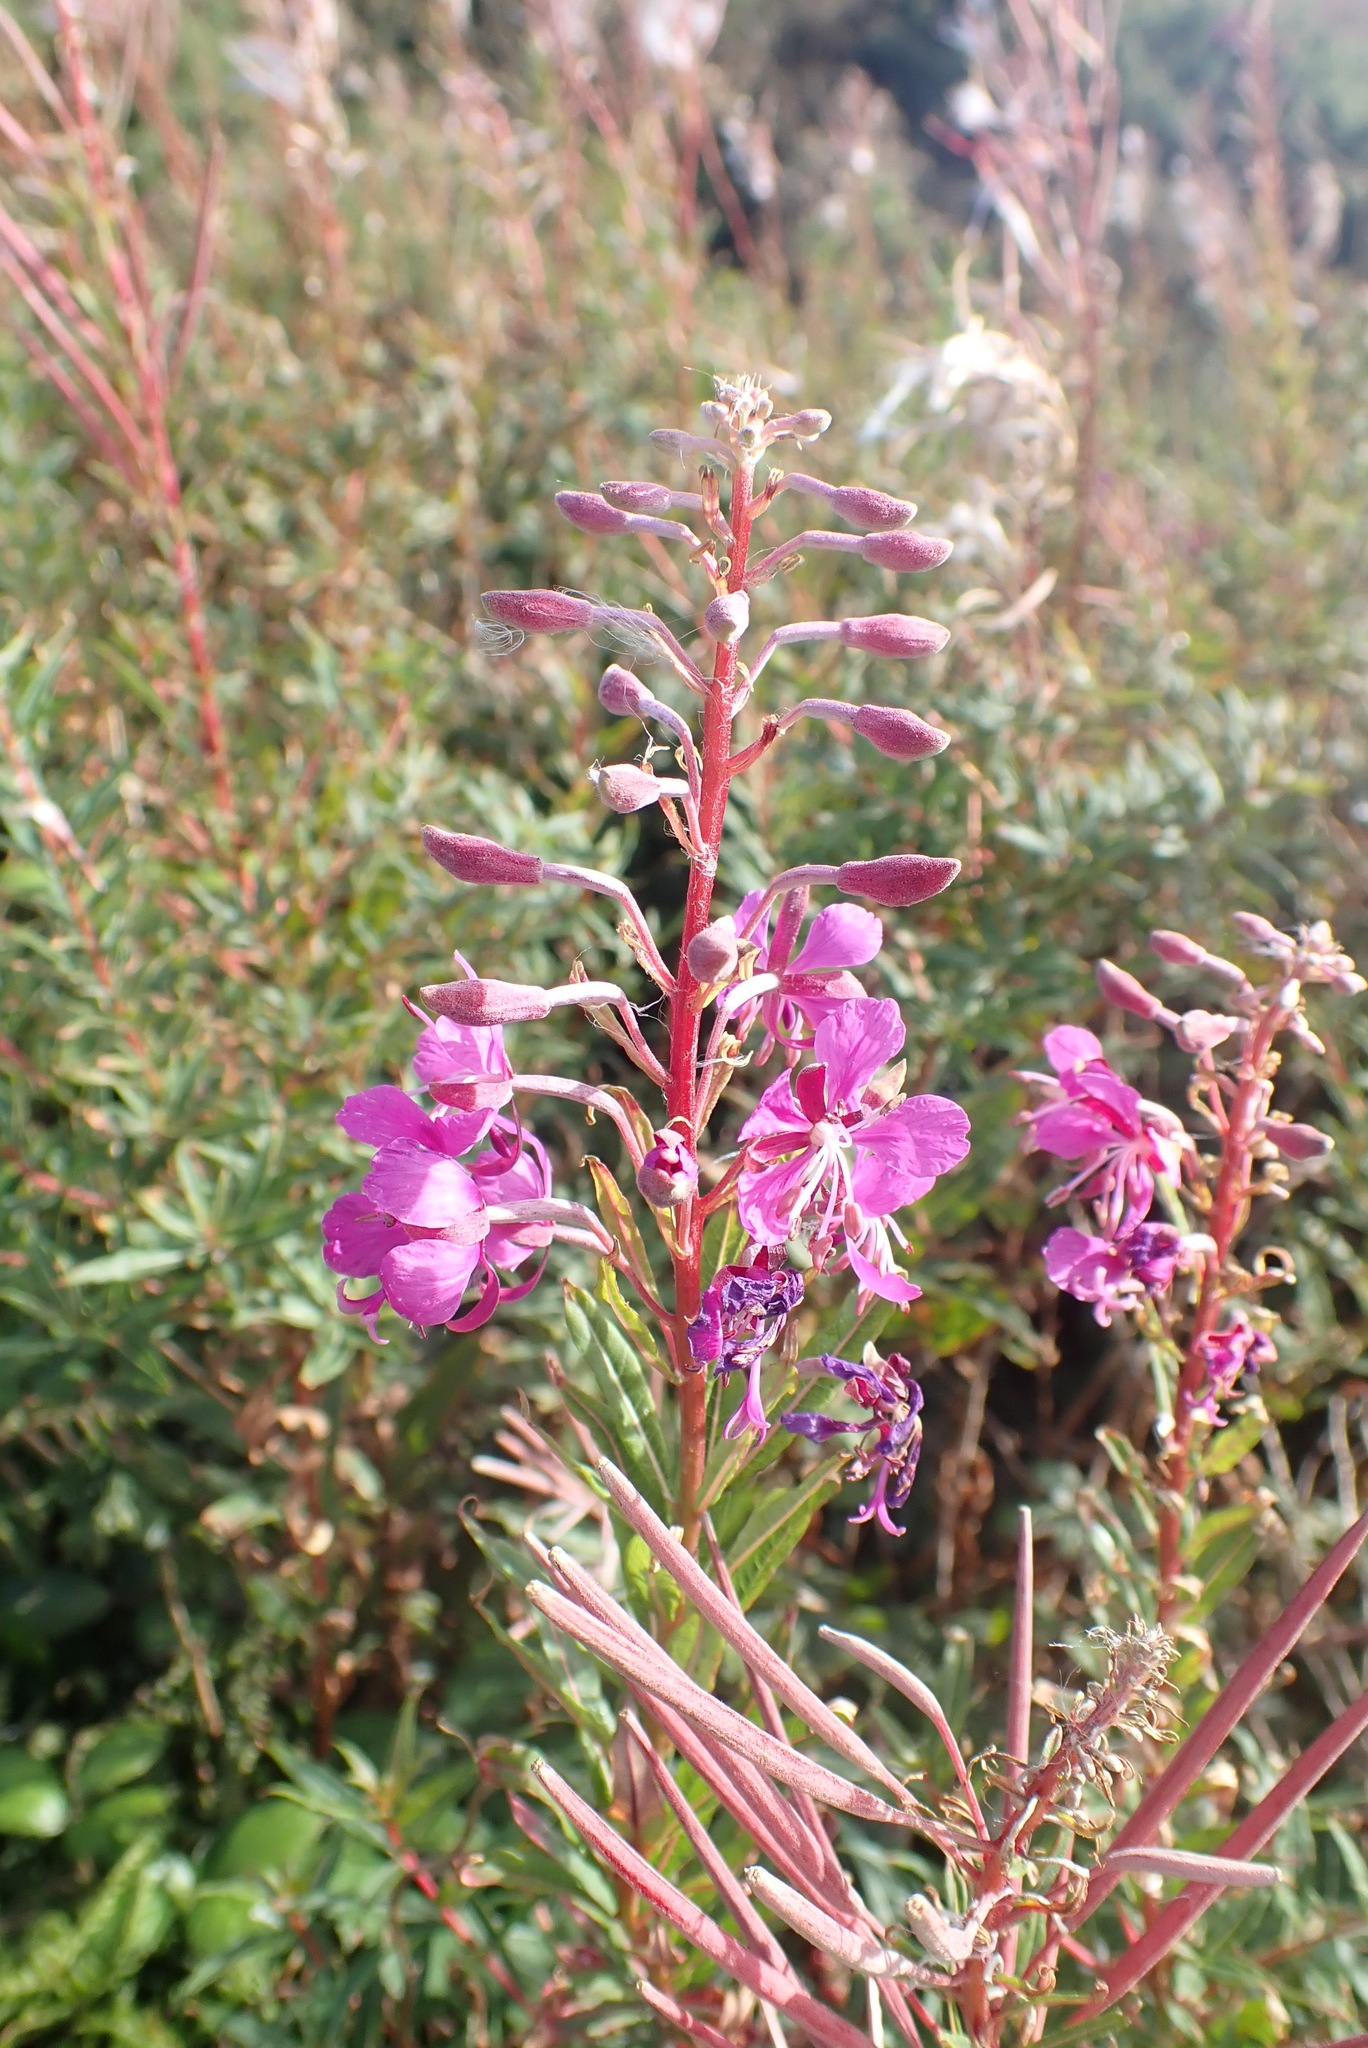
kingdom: Plantae
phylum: Tracheophyta
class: Magnoliopsida
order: Myrtales
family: Onagraceae
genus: Chamaenerion
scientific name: Chamaenerion angustifolium
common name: Fireweed
